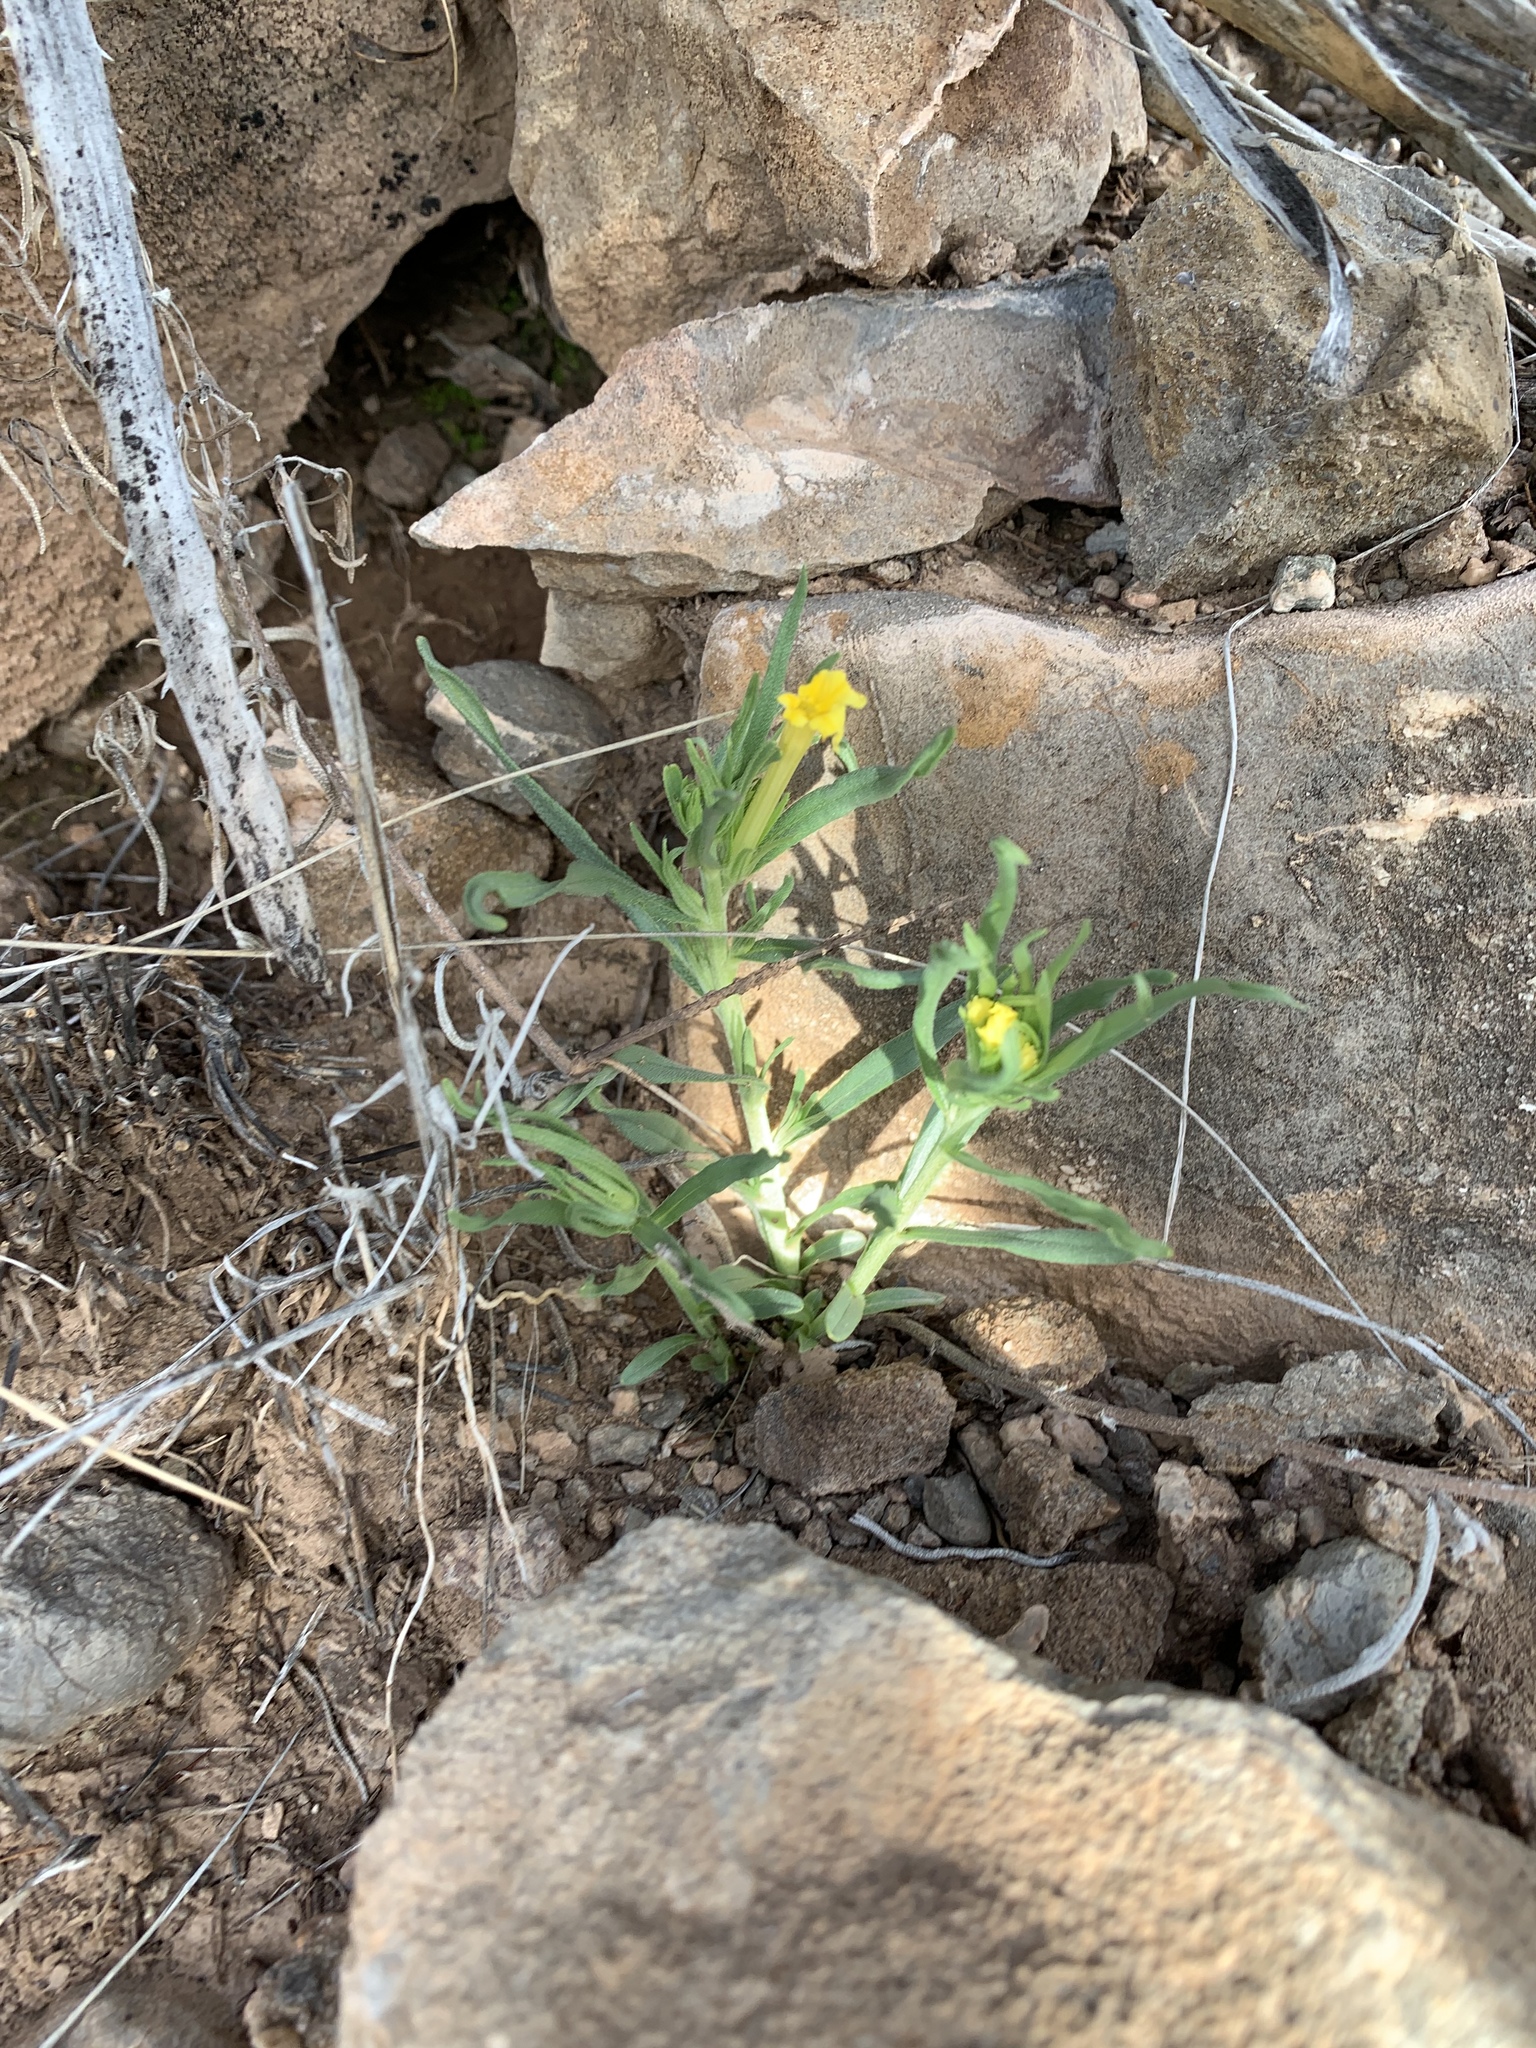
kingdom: Plantae
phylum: Tracheophyta
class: Magnoliopsida
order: Boraginales
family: Boraginaceae
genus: Lithospermum
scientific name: Lithospermum incisum
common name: Fringed gromwell
